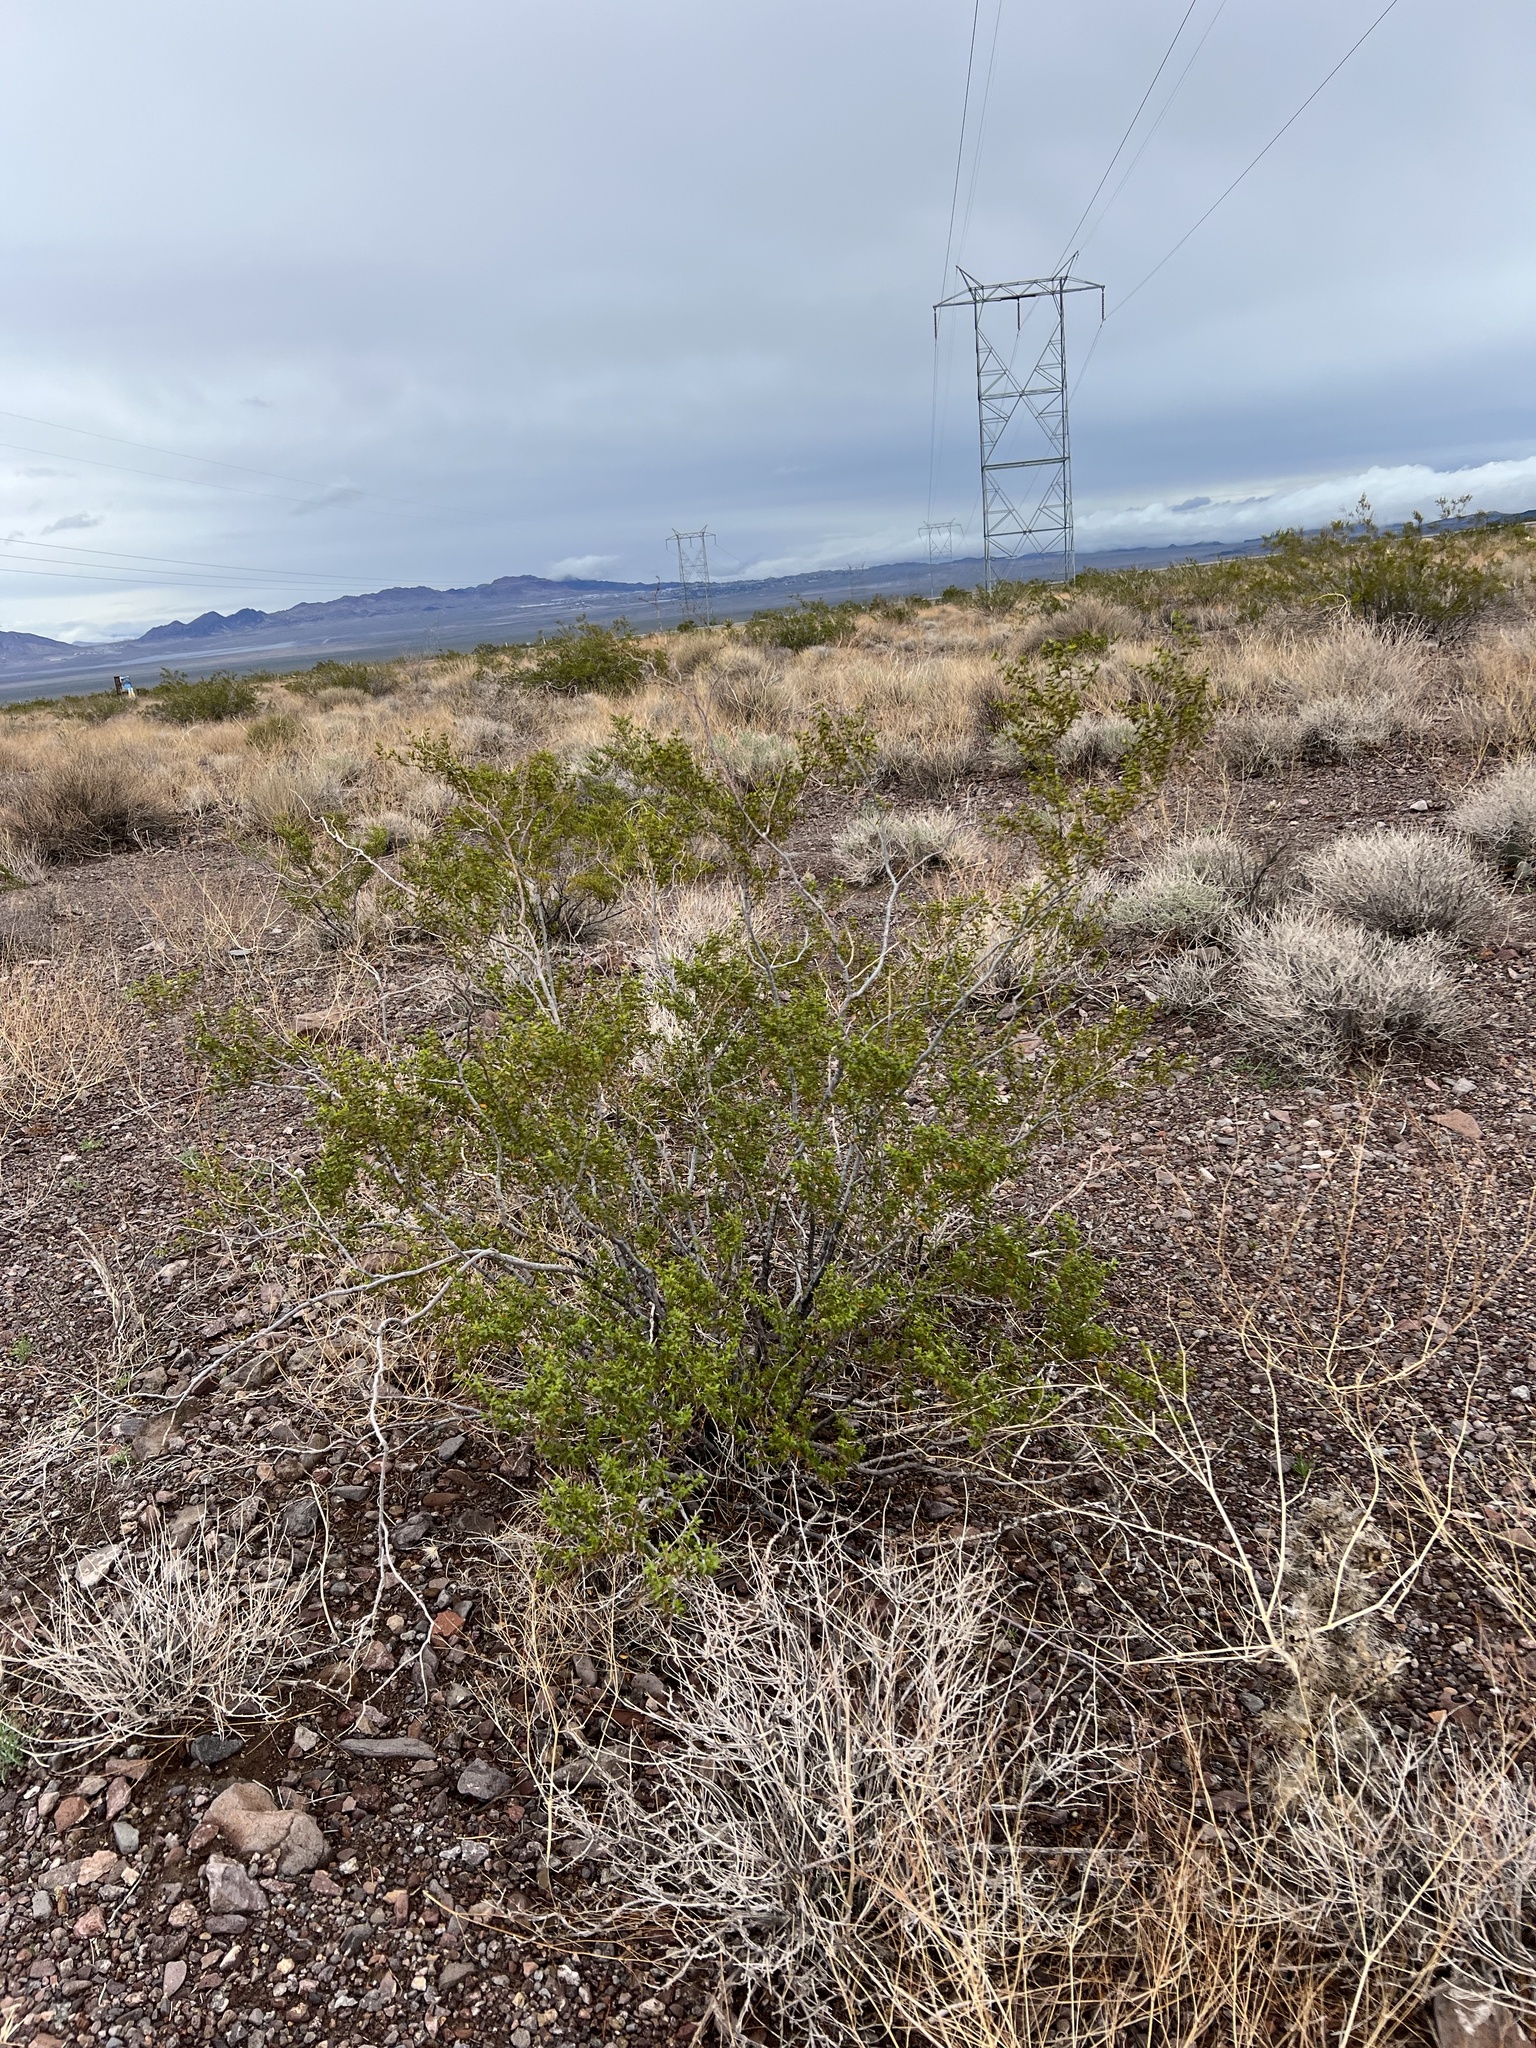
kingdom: Plantae
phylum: Tracheophyta
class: Magnoliopsida
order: Zygophyllales
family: Zygophyllaceae
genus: Larrea
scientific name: Larrea tridentata
